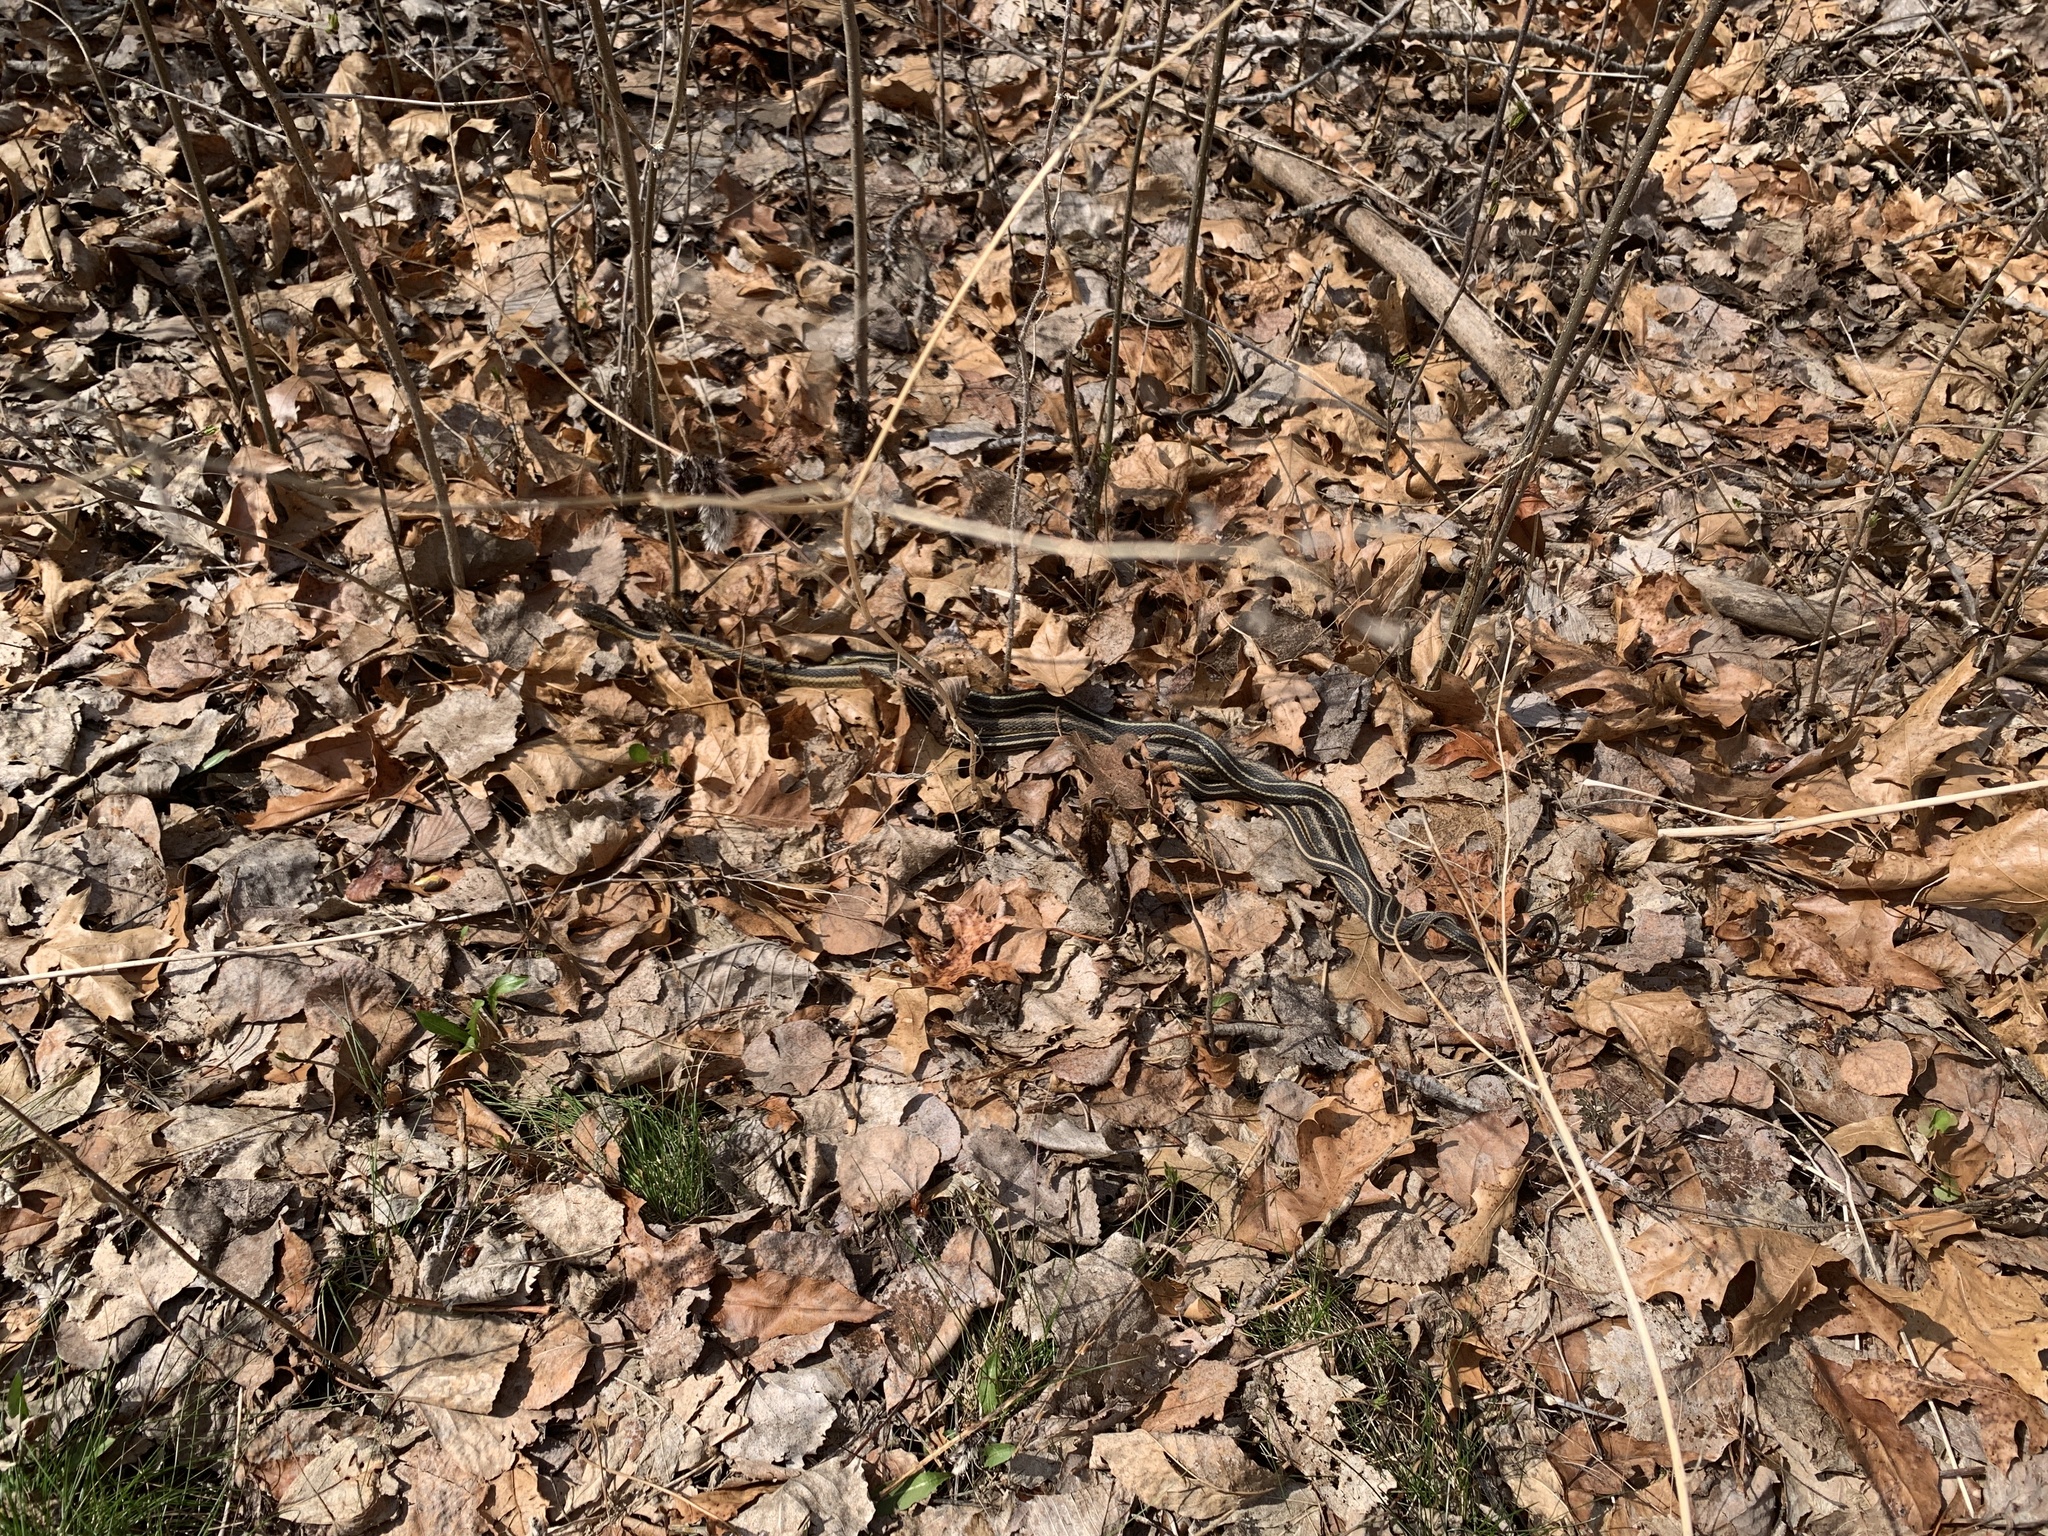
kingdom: Animalia
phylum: Chordata
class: Squamata
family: Colubridae
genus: Thamnophis
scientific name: Thamnophis sirtalis
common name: Common garter snake
